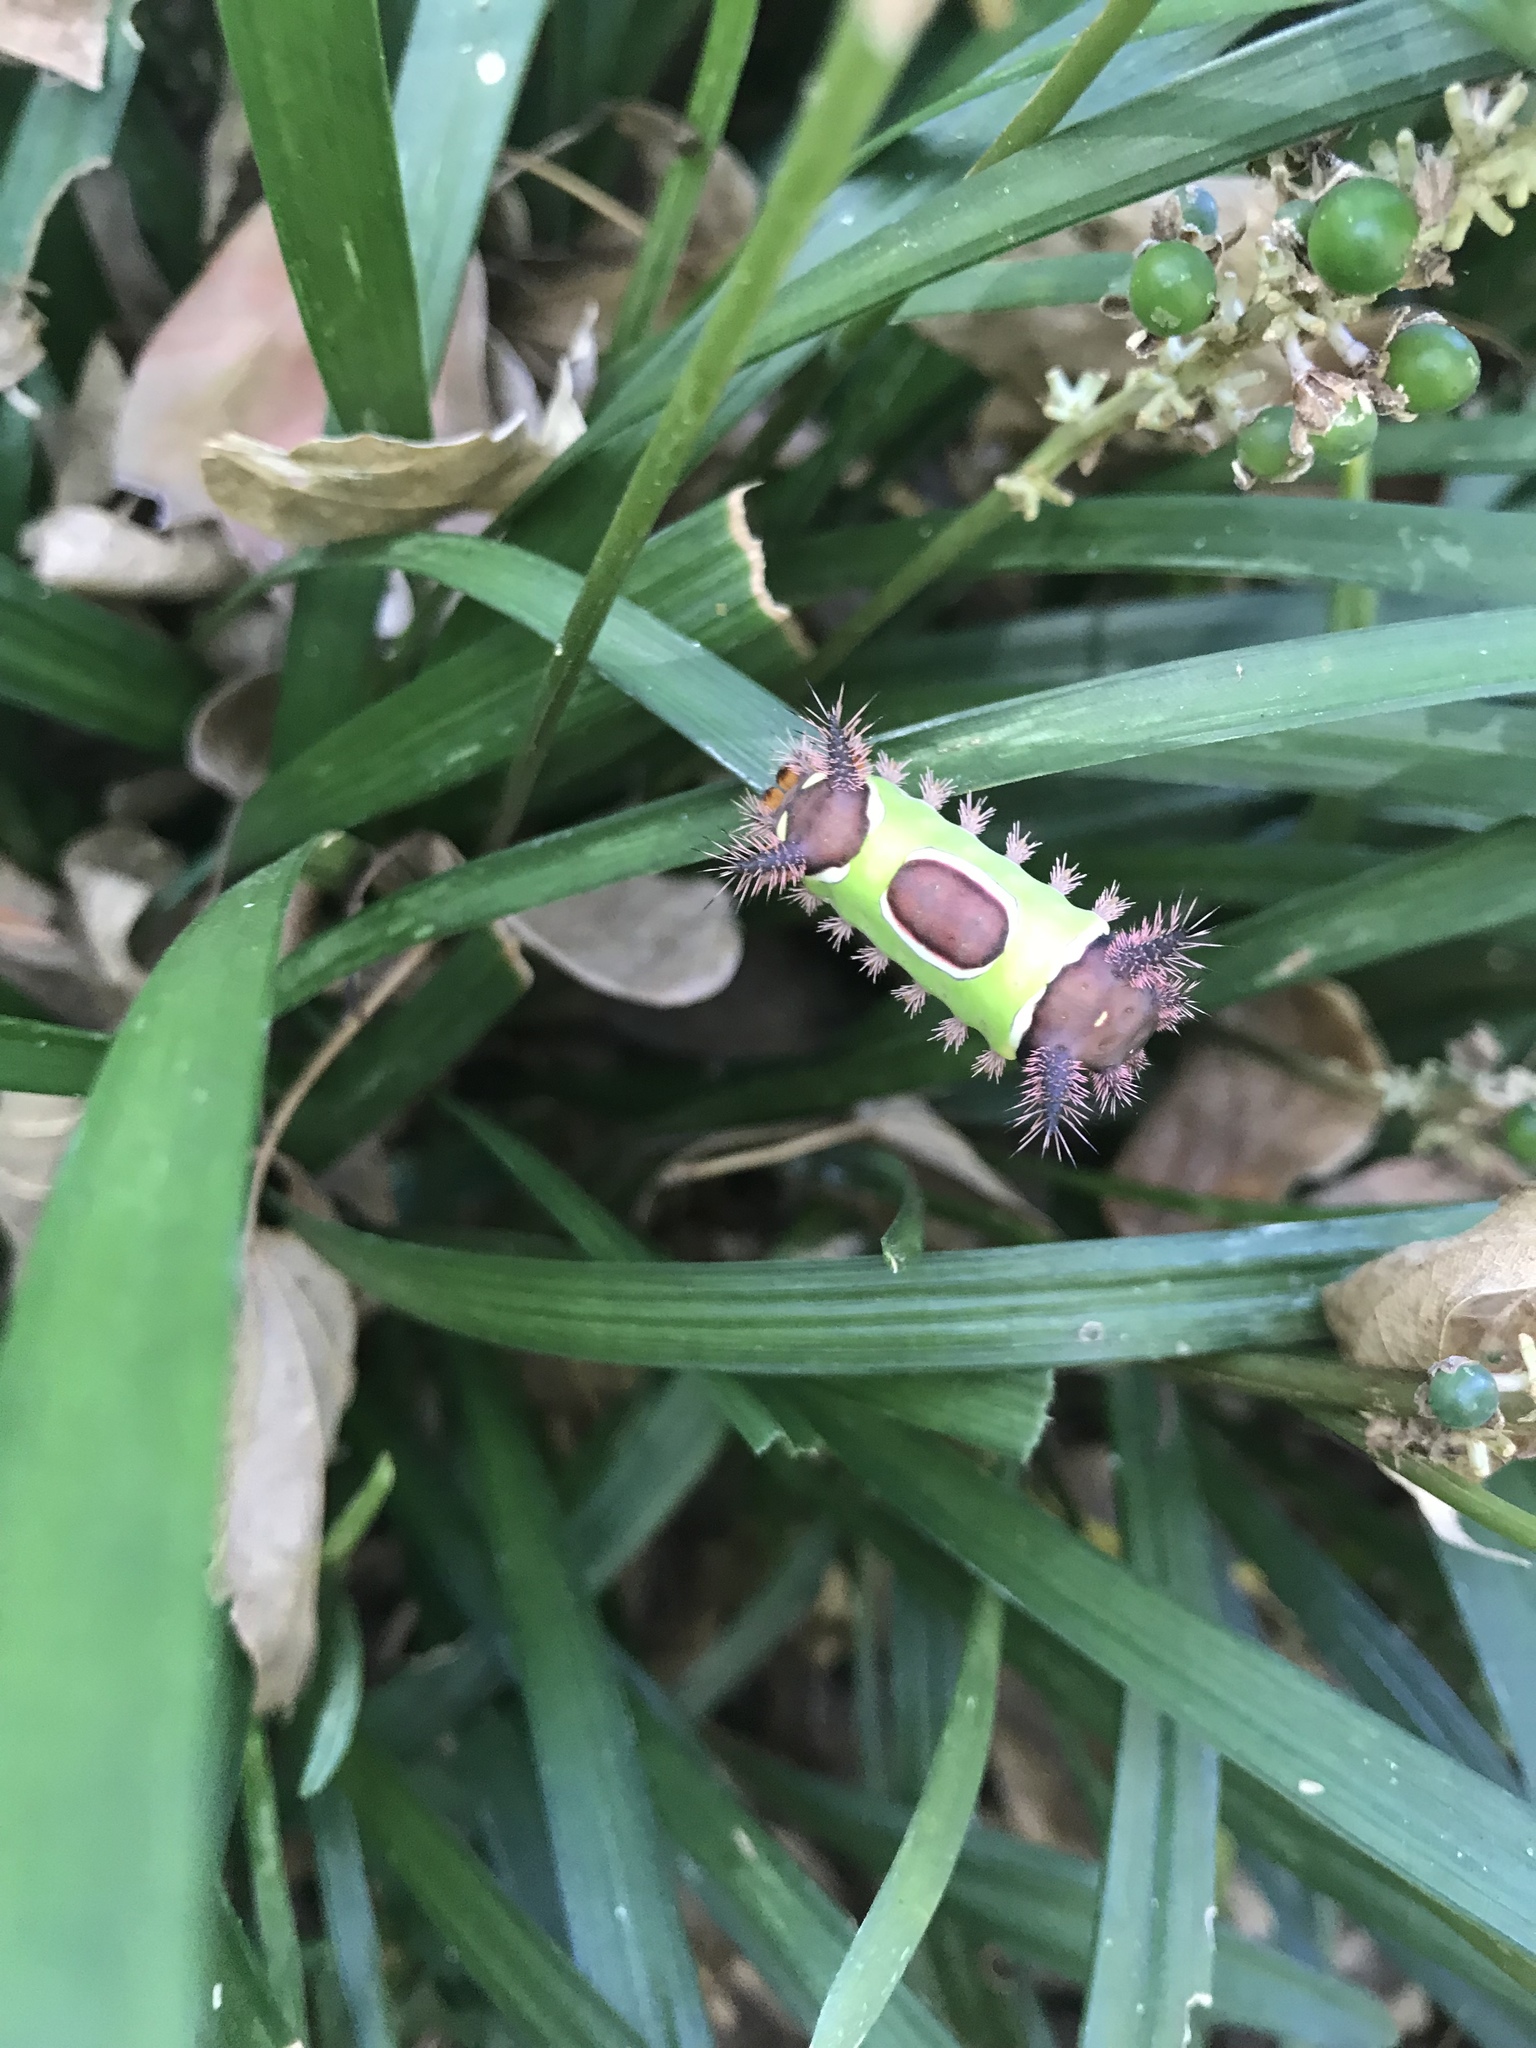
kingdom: Animalia
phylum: Arthropoda
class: Insecta
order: Lepidoptera
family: Limacodidae
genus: Acharia
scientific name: Acharia stimulea
